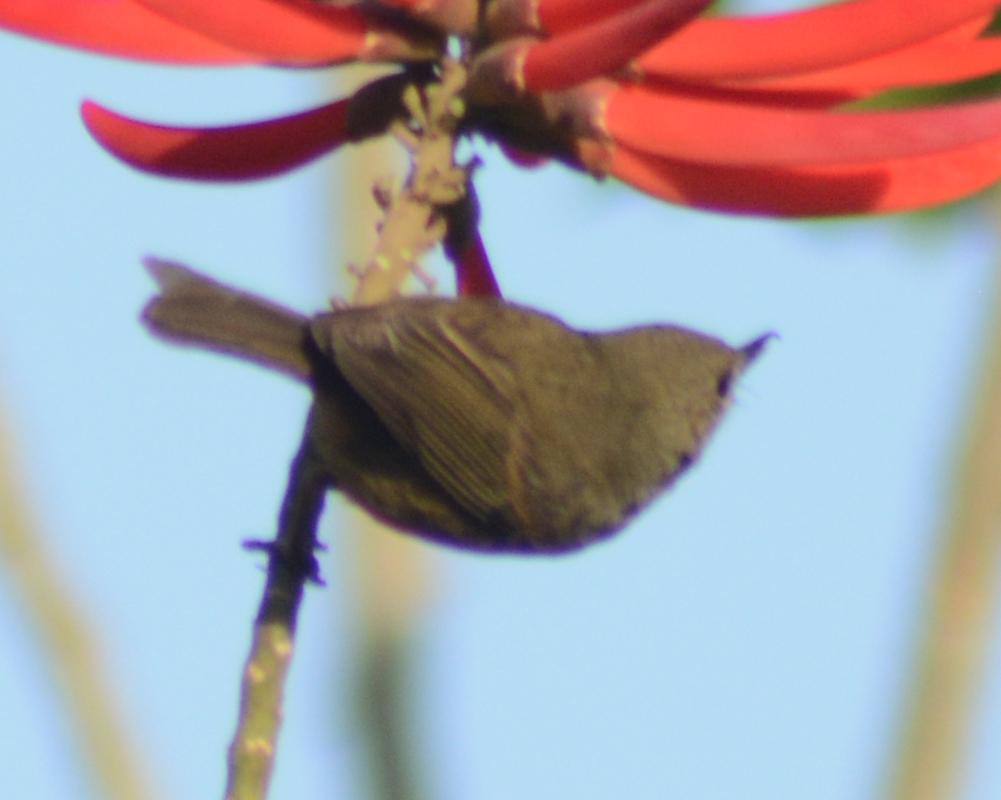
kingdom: Animalia
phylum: Chordata
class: Aves
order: Passeriformes
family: Thraupidae
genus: Diglossa
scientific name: Diglossa baritula
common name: Cinnamon-bellied flowerpiercer
